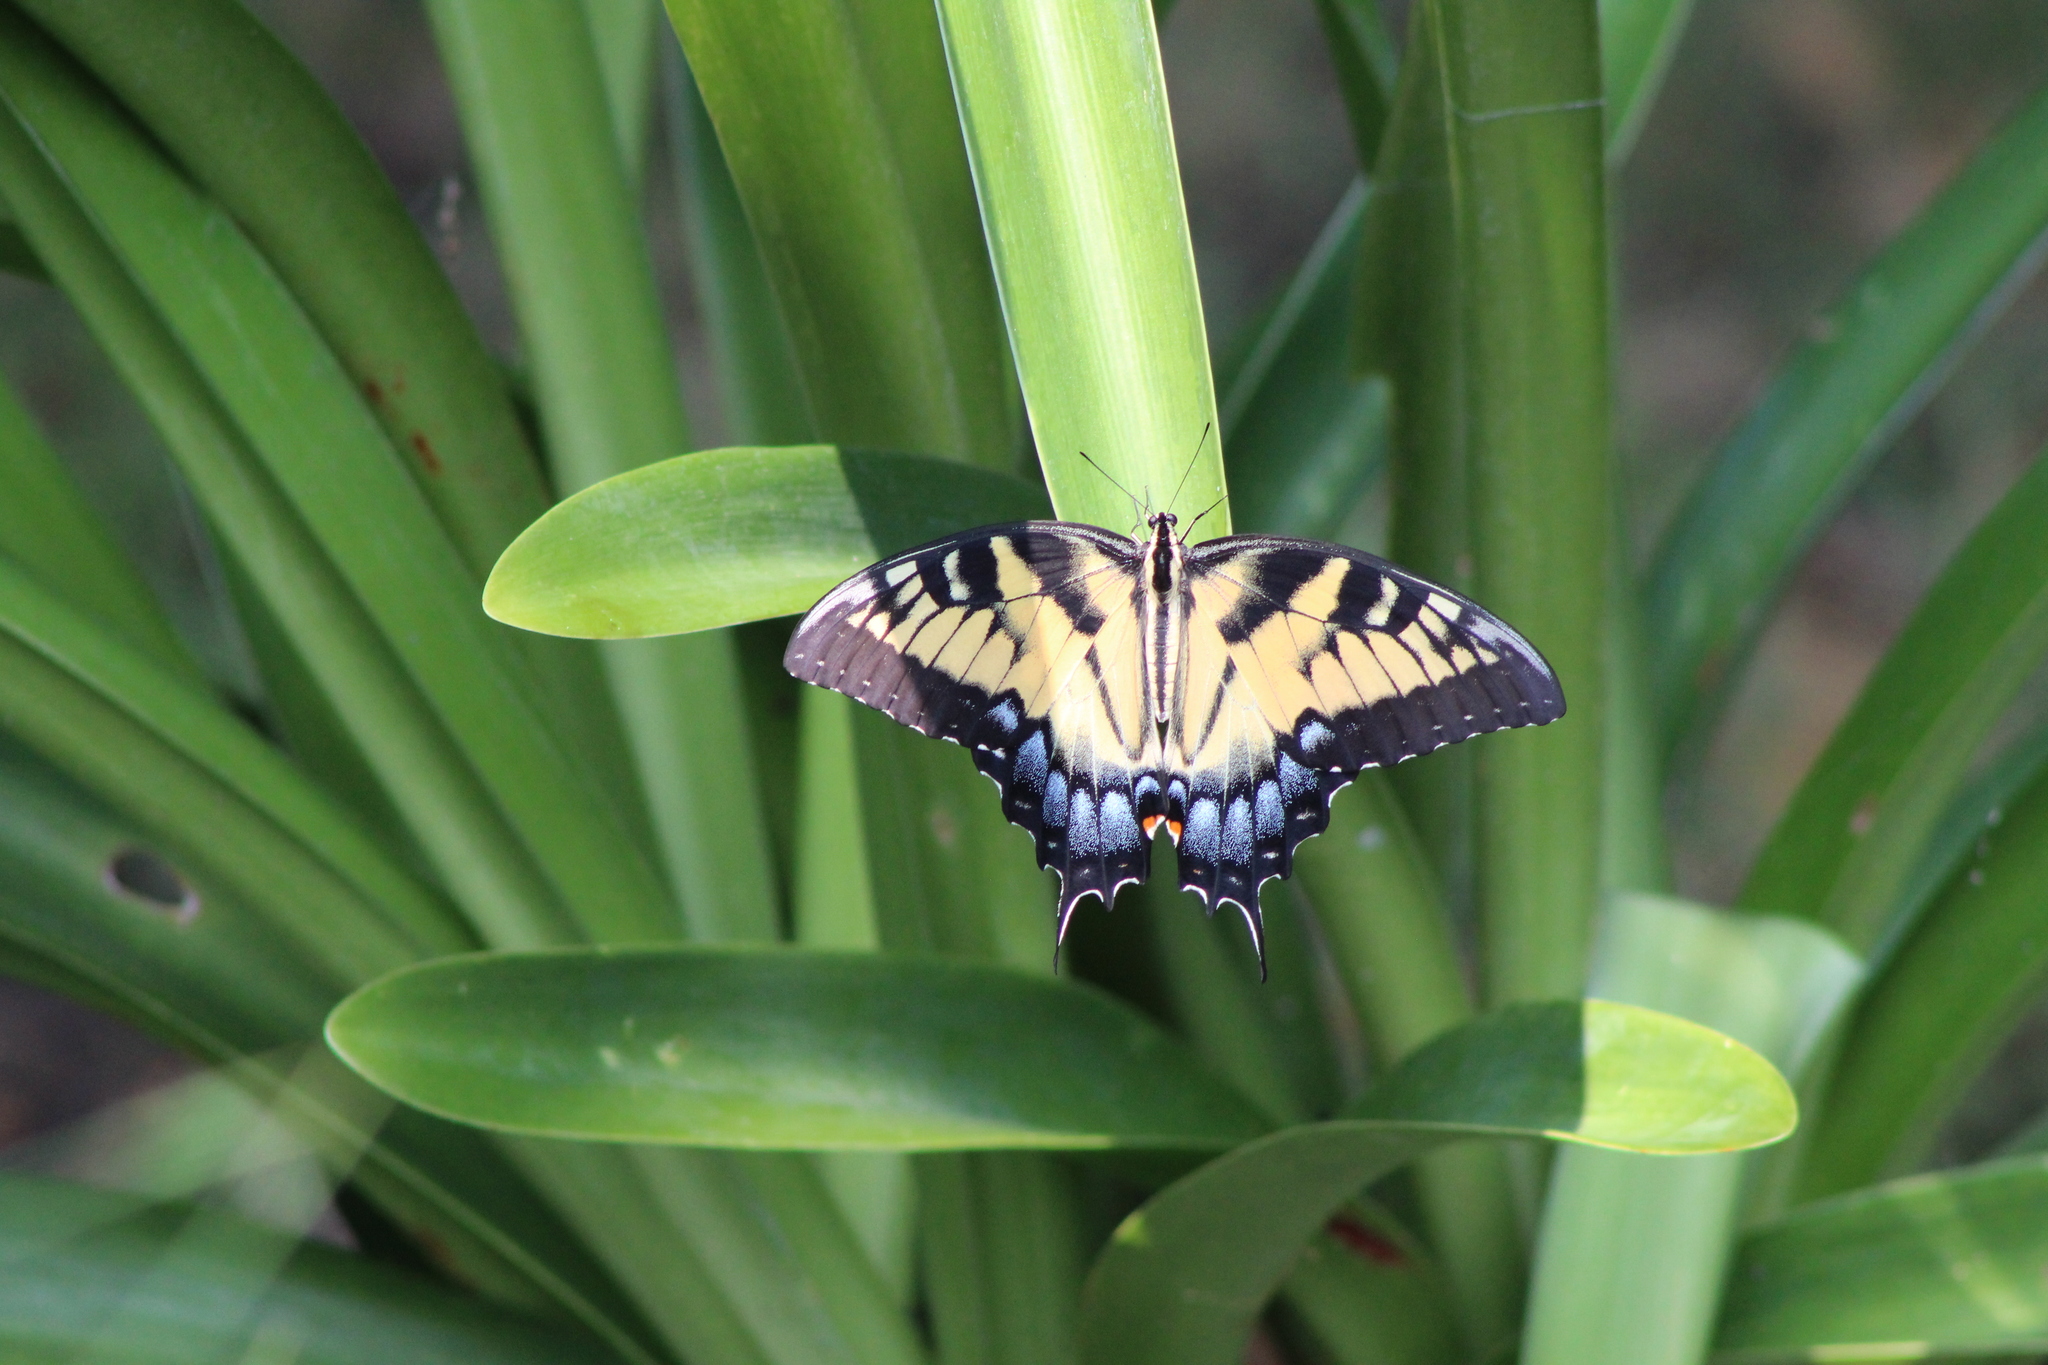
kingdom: Animalia
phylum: Arthropoda
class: Insecta
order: Lepidoptera
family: Papilionidae
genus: Papilio
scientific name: Papilio glaucus
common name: Tiger swallowtail
